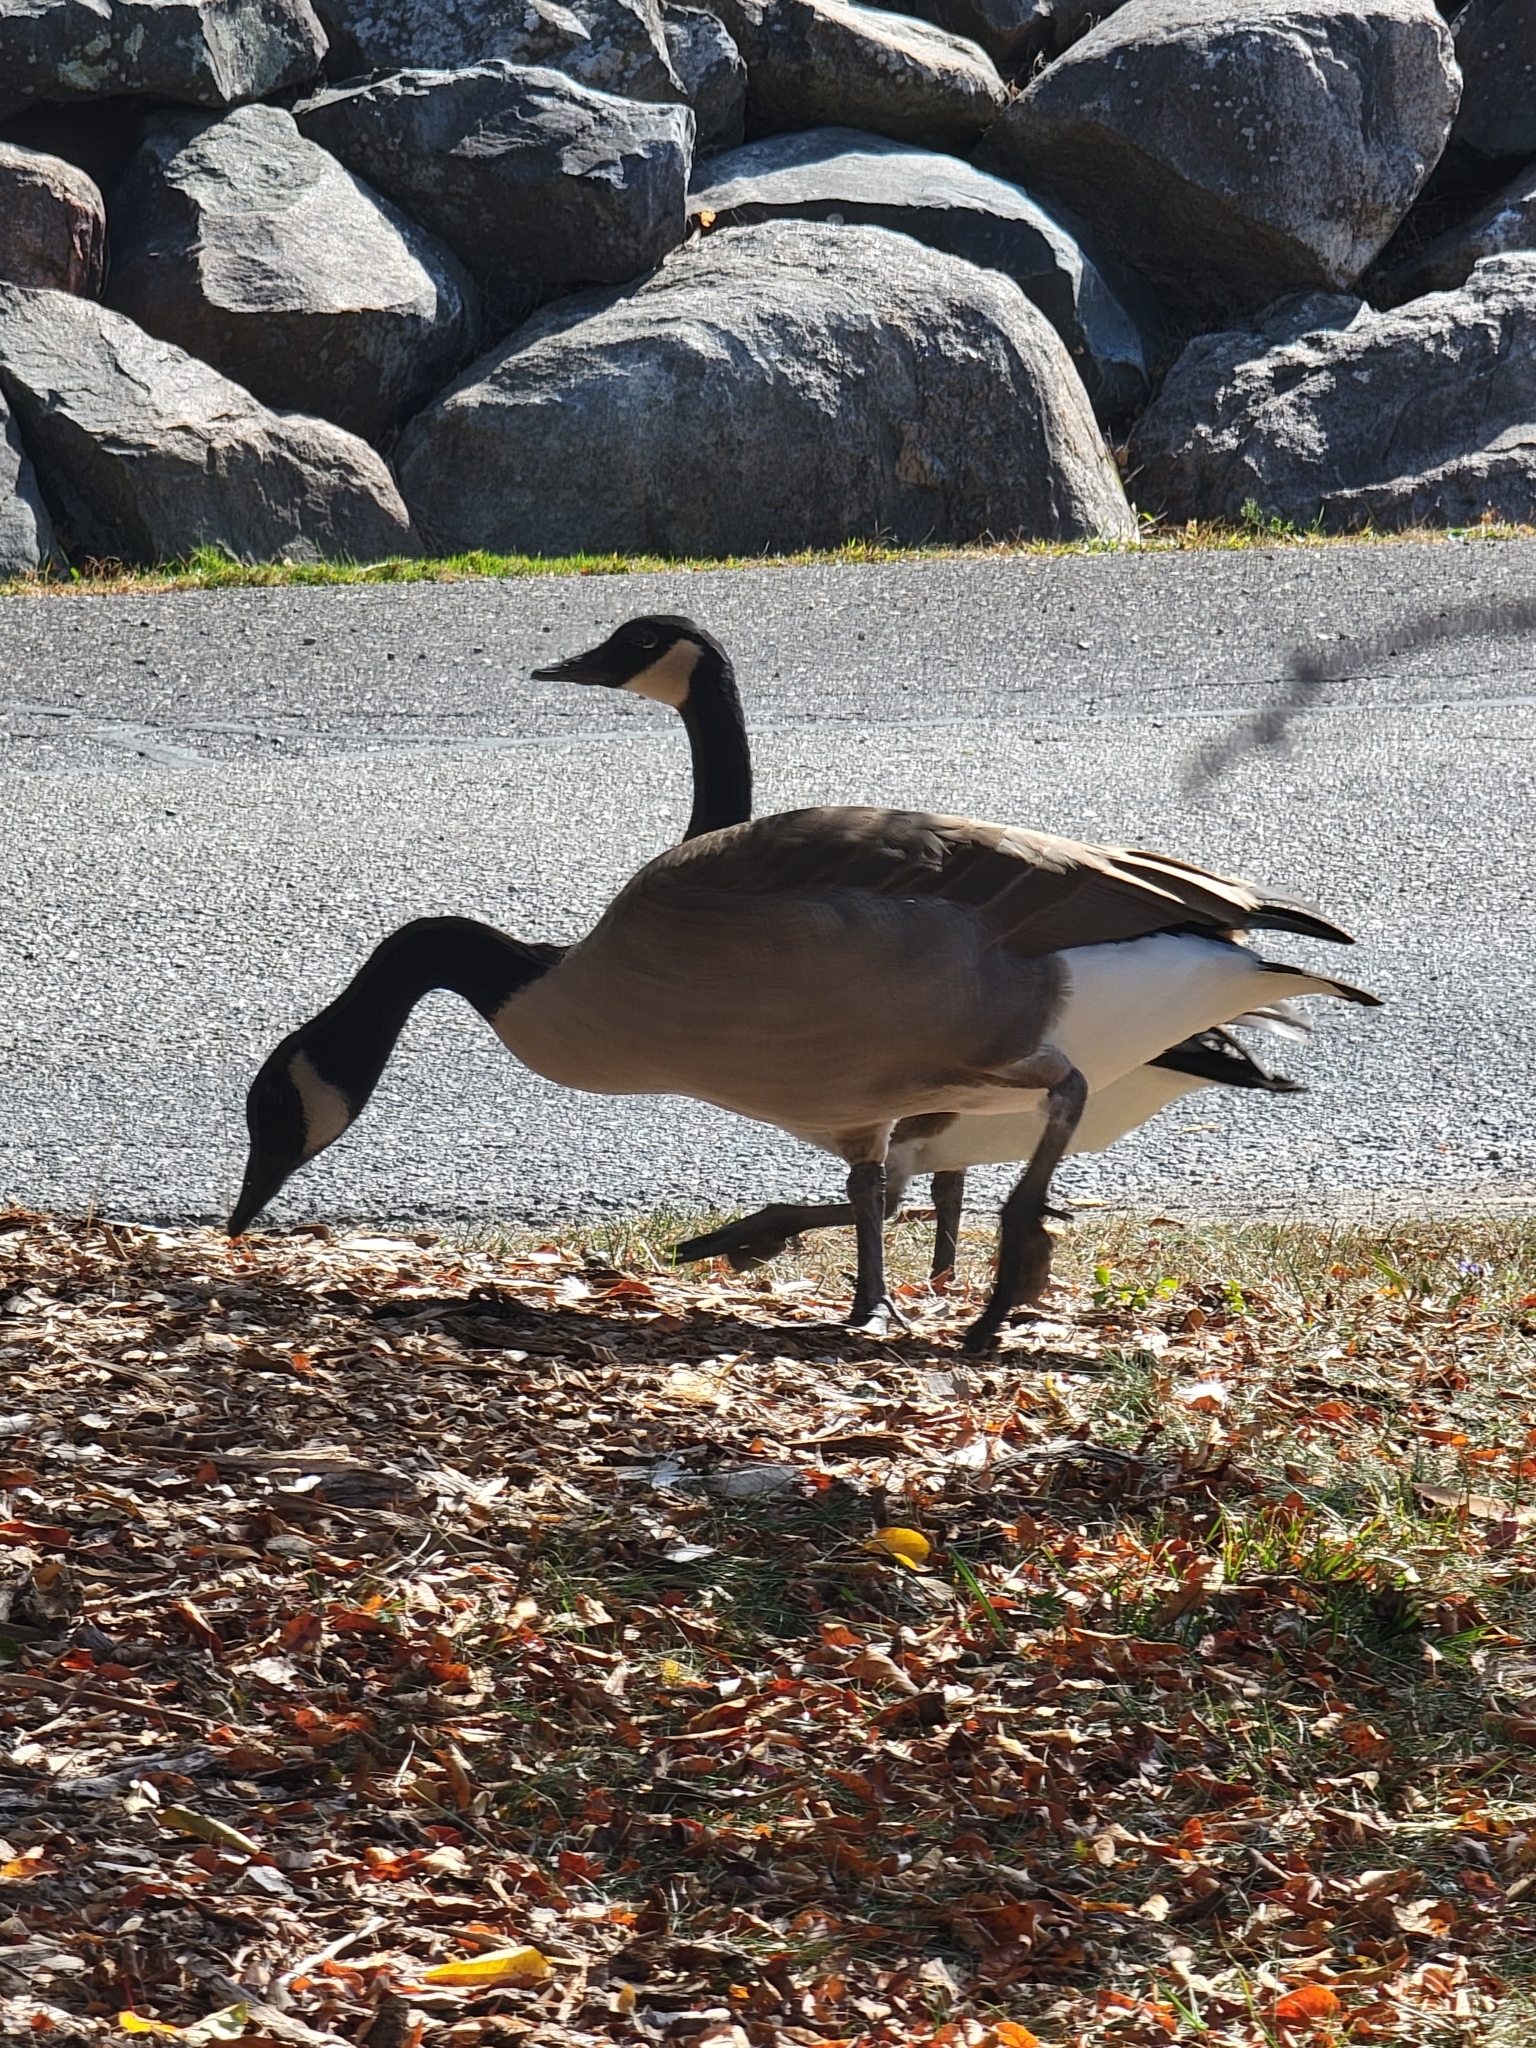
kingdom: Animalia
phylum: Chordata
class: Aves
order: Anseriformes
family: Anatidae
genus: Branta
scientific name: Branta canadensis
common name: Canada goose
